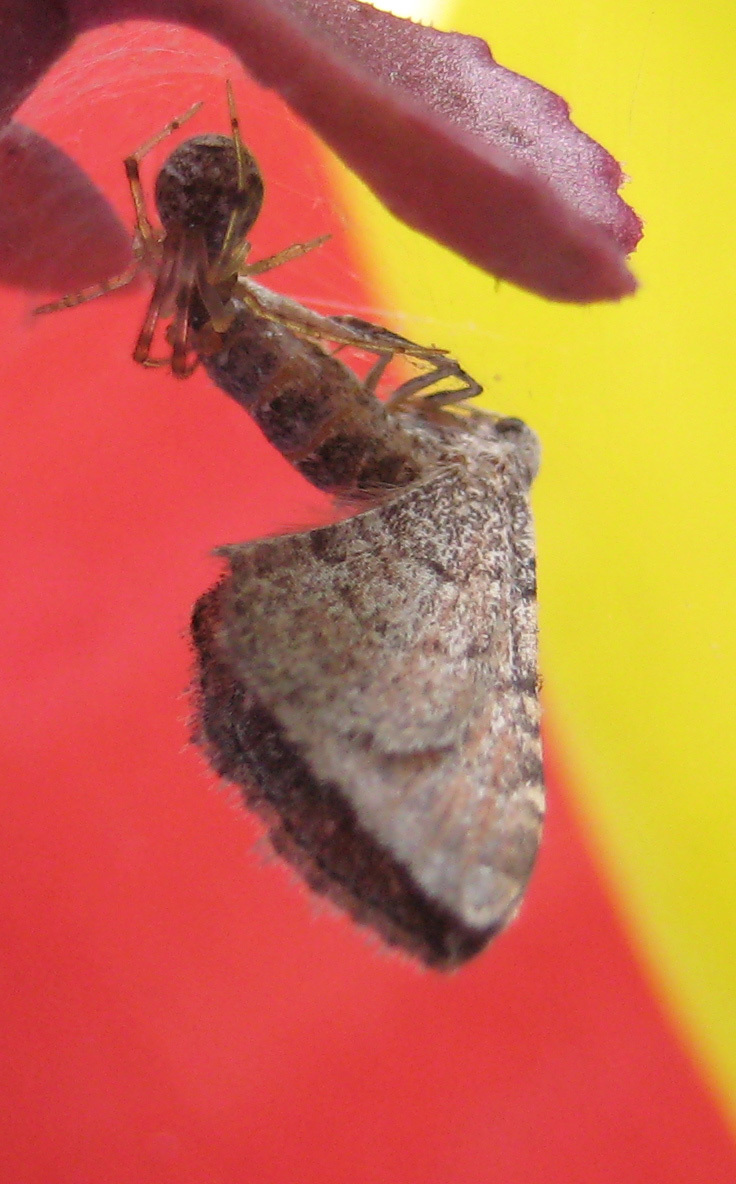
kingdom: Animalia
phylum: Arthropoda
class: Insecta
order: Lepidoptera
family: Geometridae
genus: Orthonama
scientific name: Orthonama obstipata
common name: The gem
